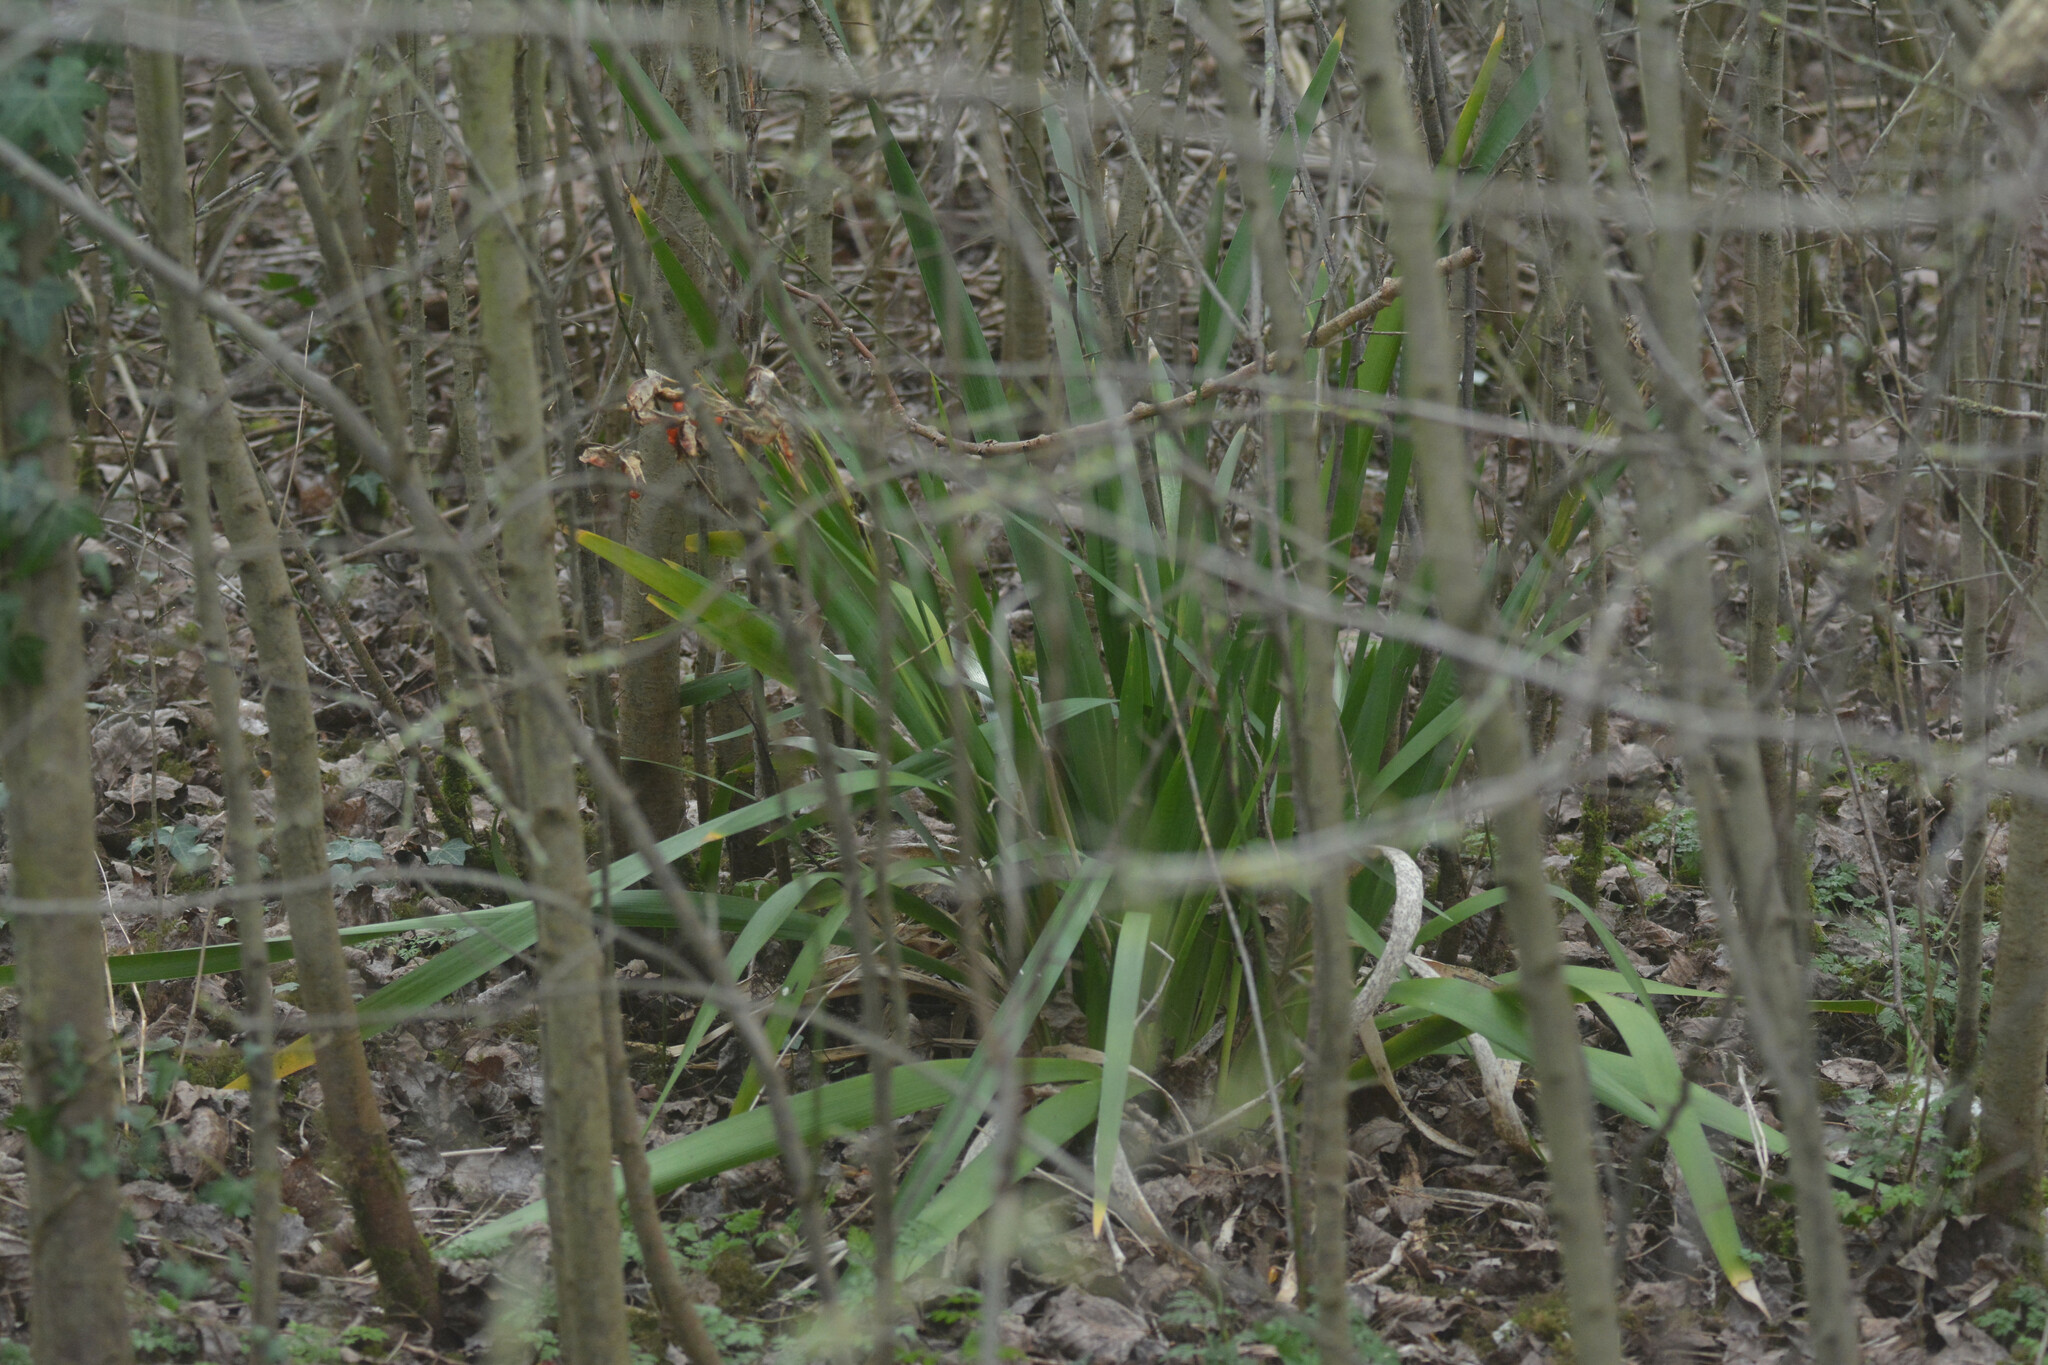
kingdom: Plantae
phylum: Tracheophyta
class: Liliopsida
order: Asparagales
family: Iridaceae
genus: Iris
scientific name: Iris foetidissima
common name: Stinking iris
